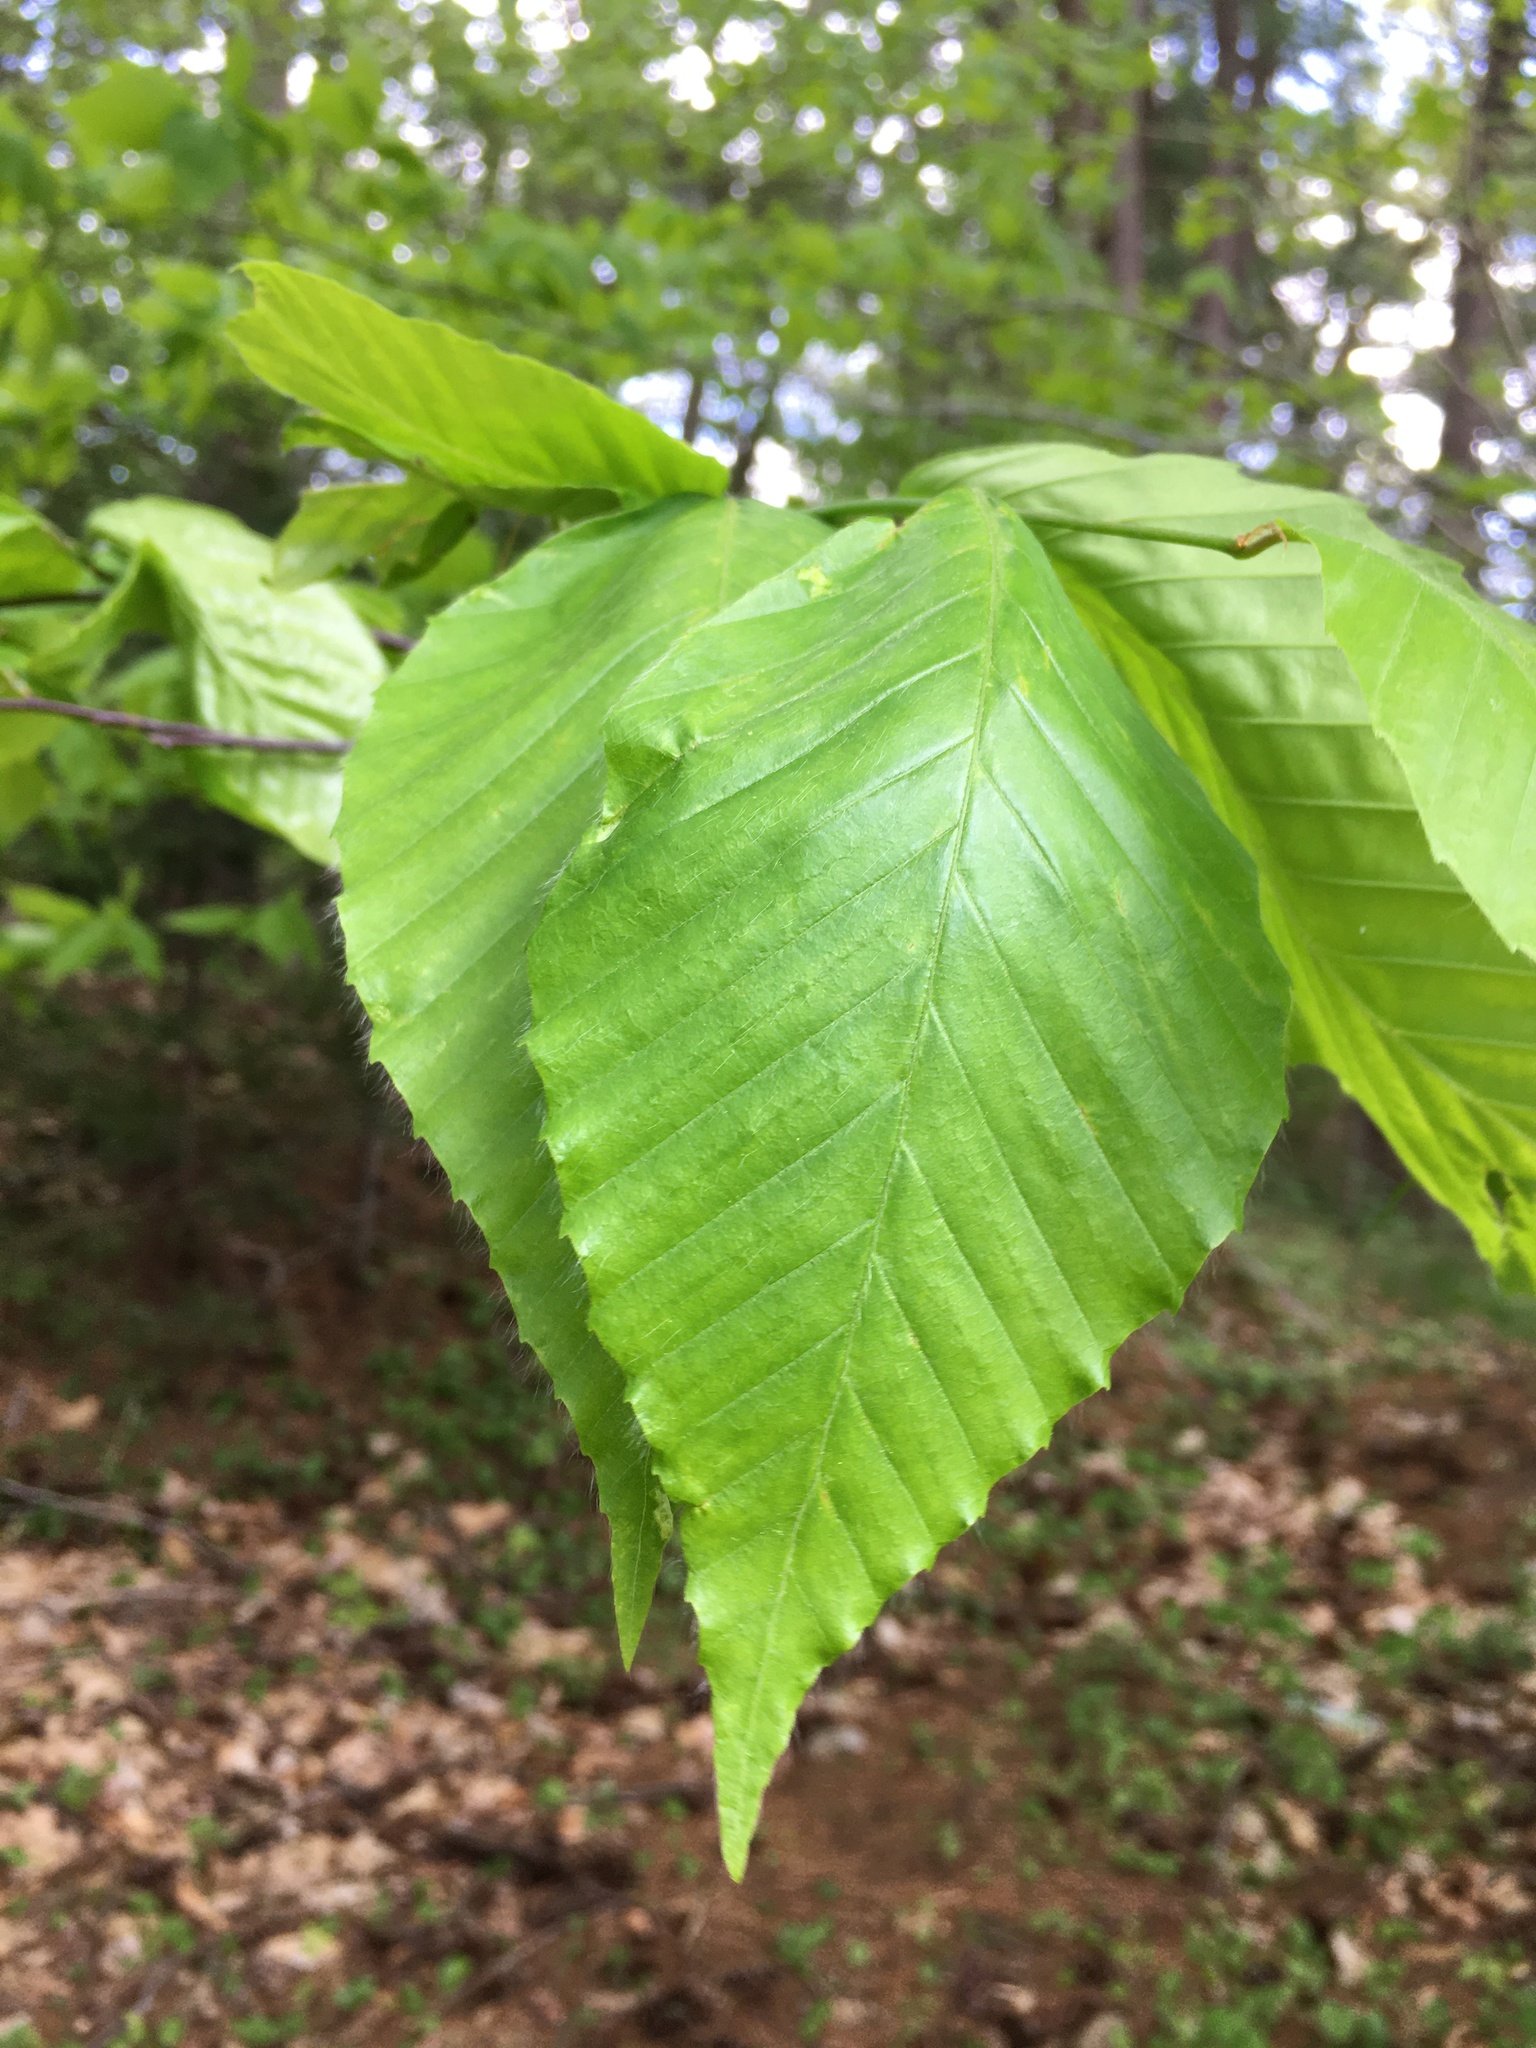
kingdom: Plantae
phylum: Tracheophyta
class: Magnoliopsida
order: Fagales
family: Fagaceae
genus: Fagus
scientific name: Fagus grandifolia
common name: American beech
